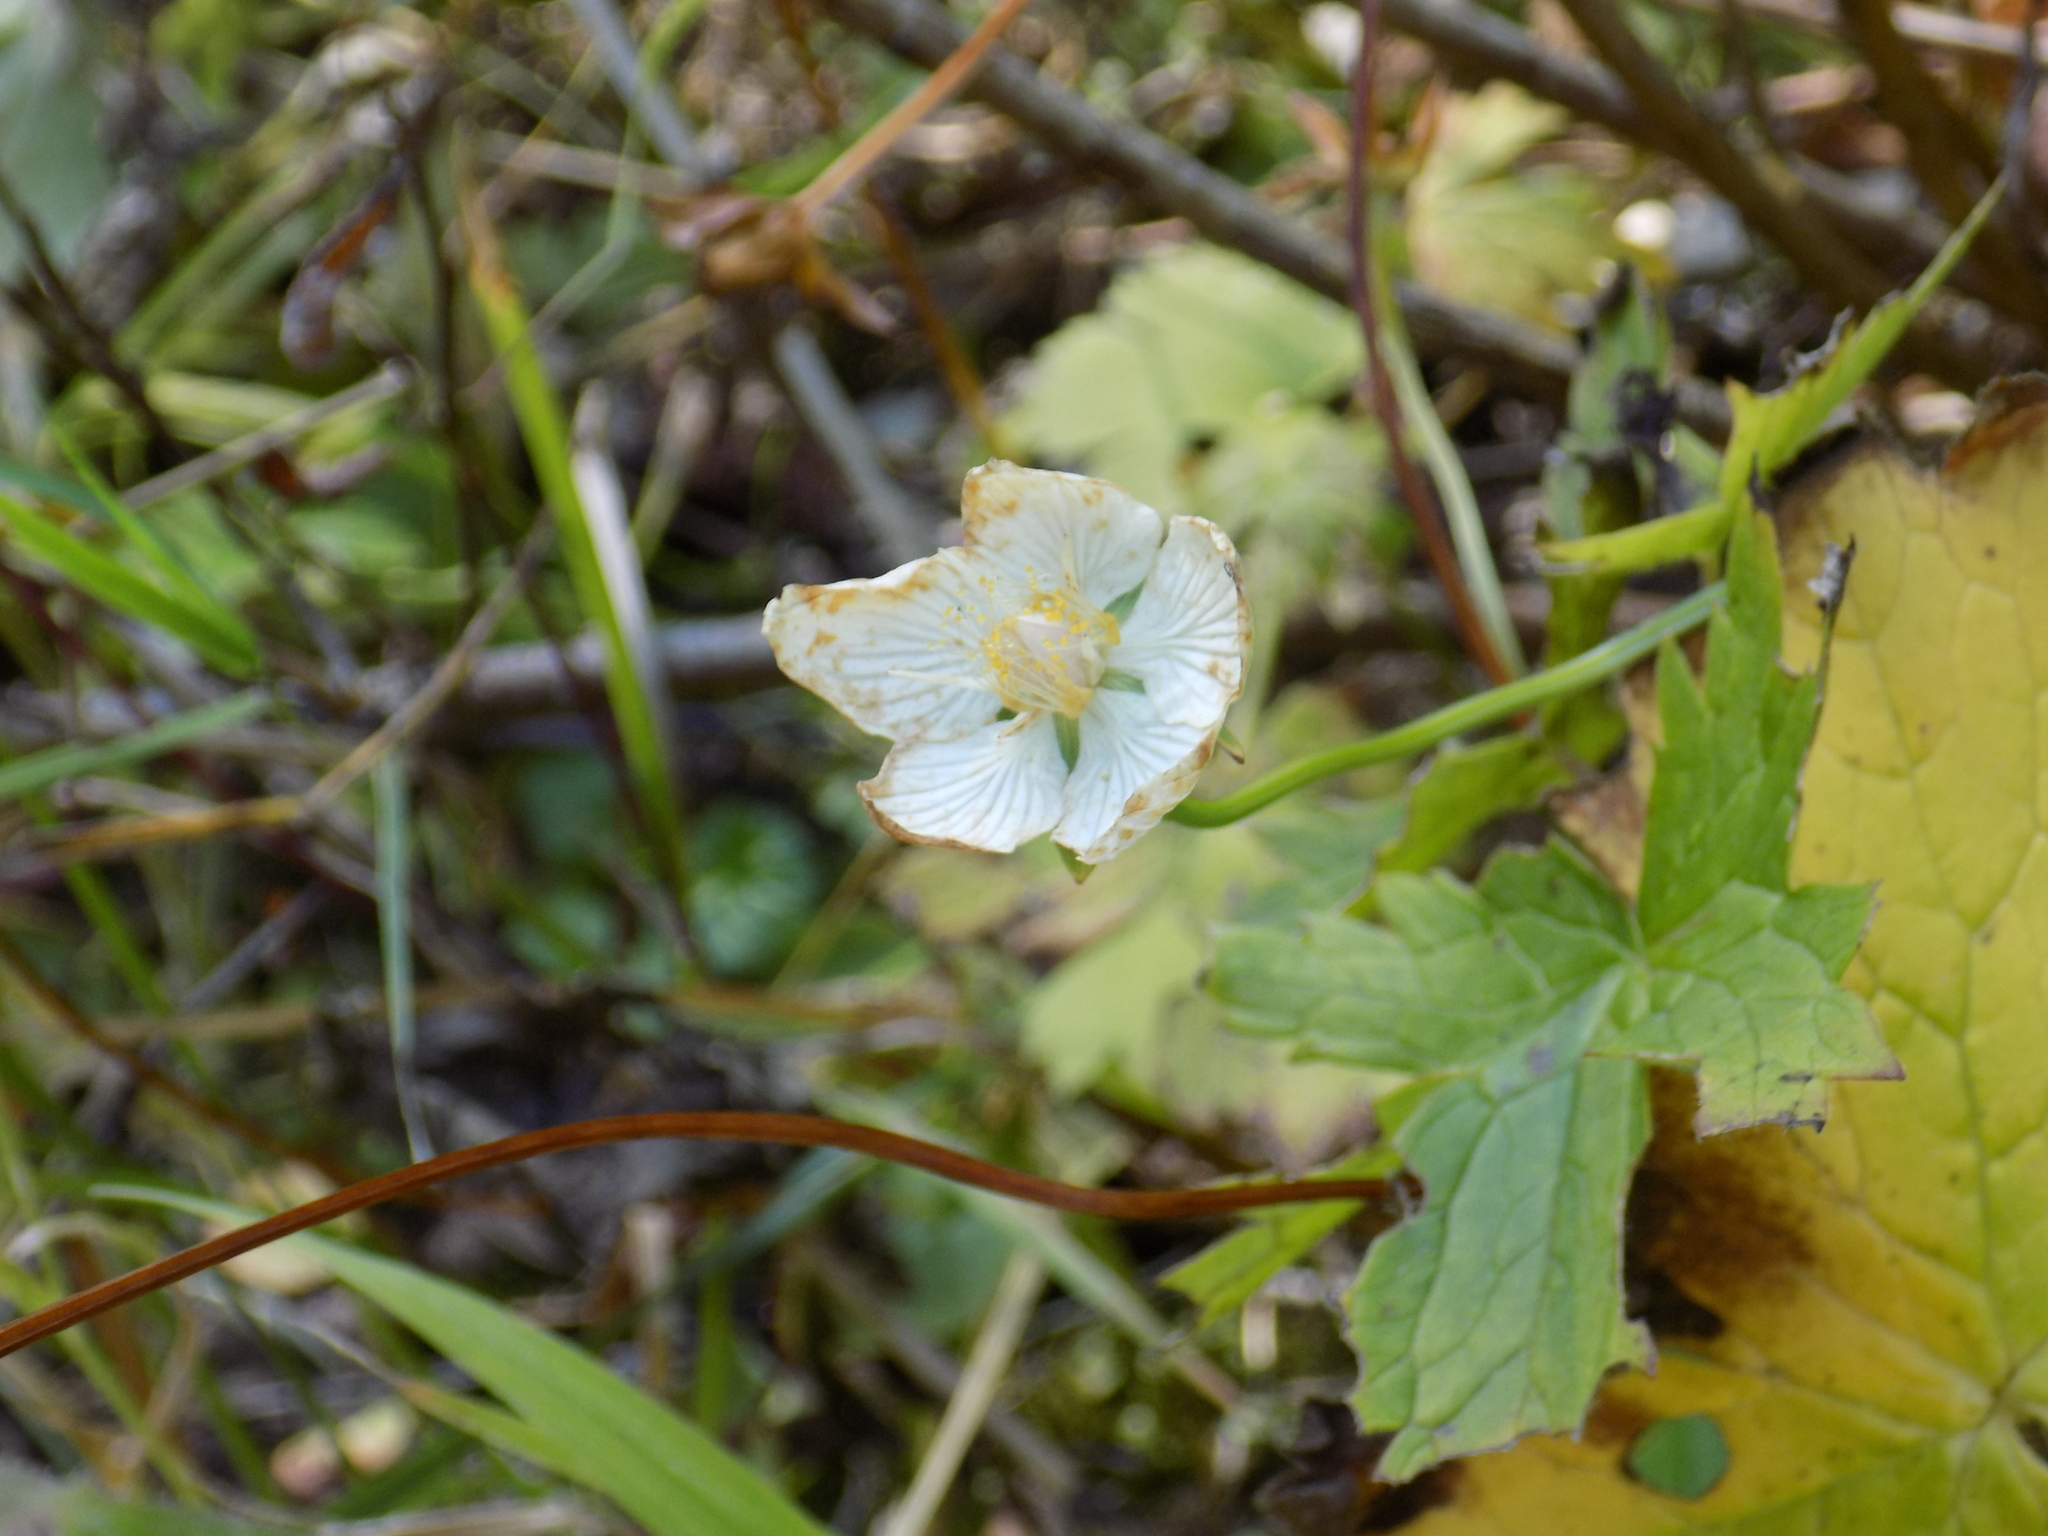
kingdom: Plantae
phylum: Tracheophyta
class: Magnoliopsida
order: Celastrales
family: Parnassiaceae
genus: Parnassia
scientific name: Parnassia palustris
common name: Grass-of-parnassus
